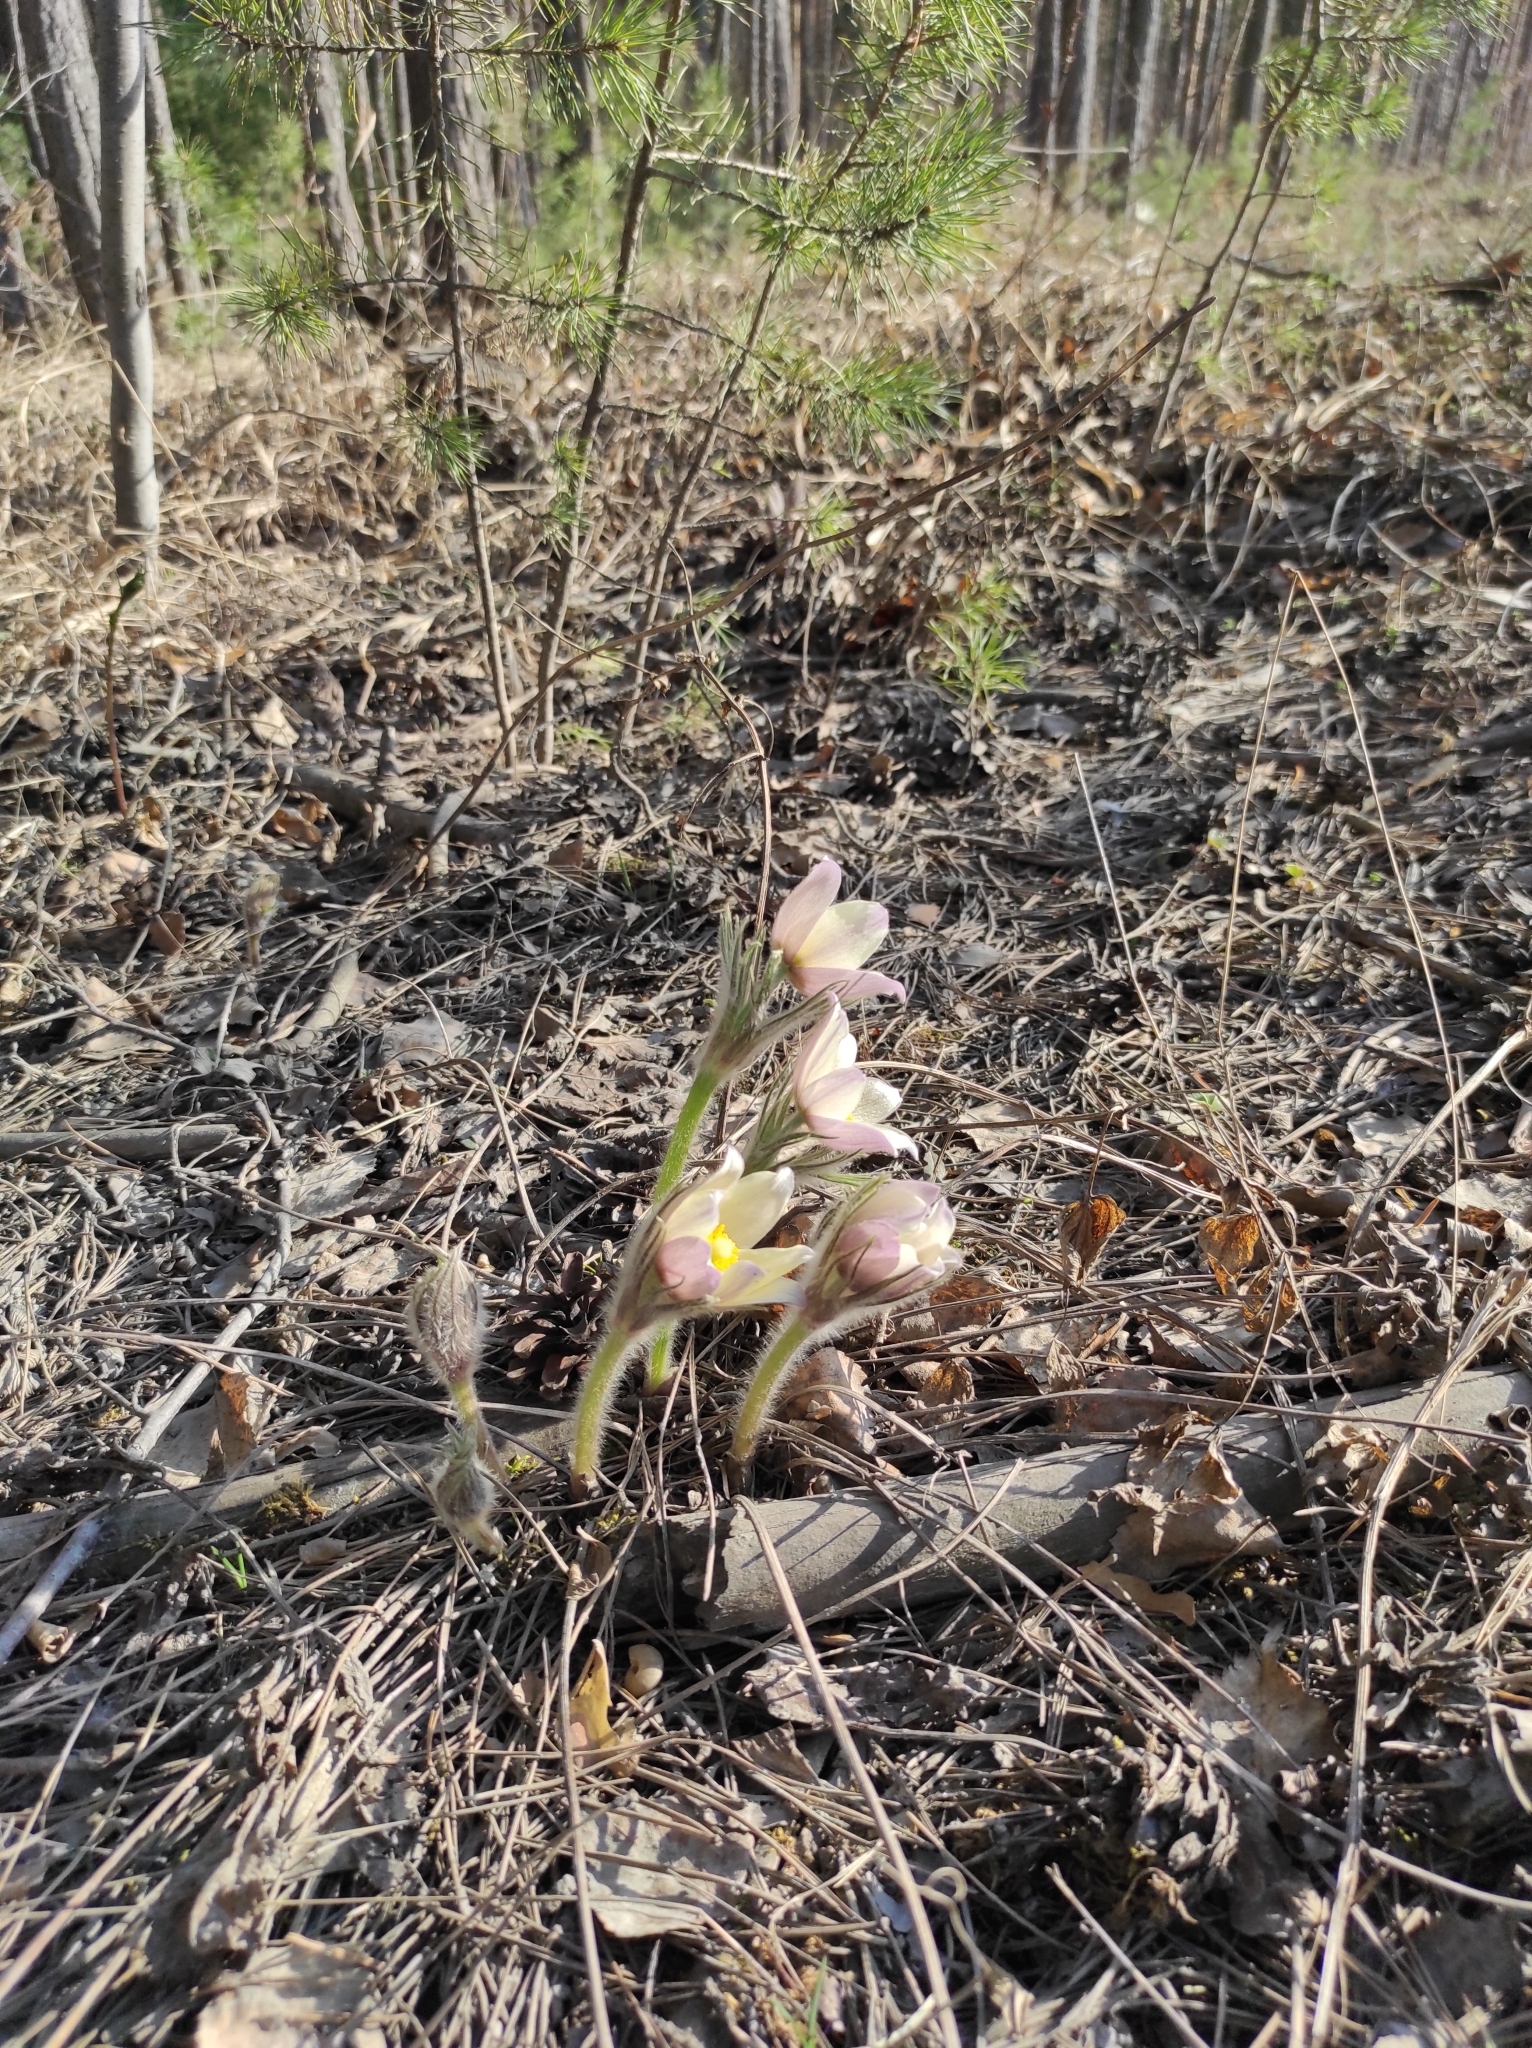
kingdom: Plantae
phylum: Tracheophyta
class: Magnoliopsida
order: Ranunculales
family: Ranunculaceae
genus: Pulsatilla
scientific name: Pulsatilla patens
